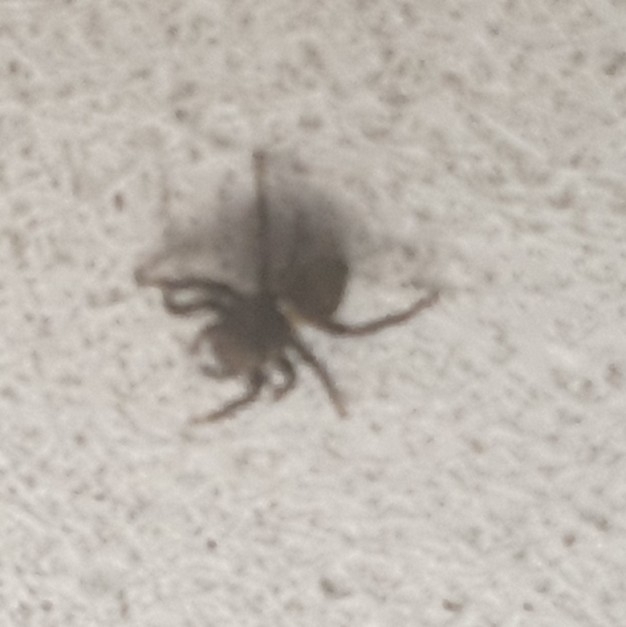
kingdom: Animalia
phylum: Arthropoda
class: Arachnida
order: Araneae
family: Salticidae
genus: Heliophanus
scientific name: Heliophanus kochii
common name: Sun jumping spider
